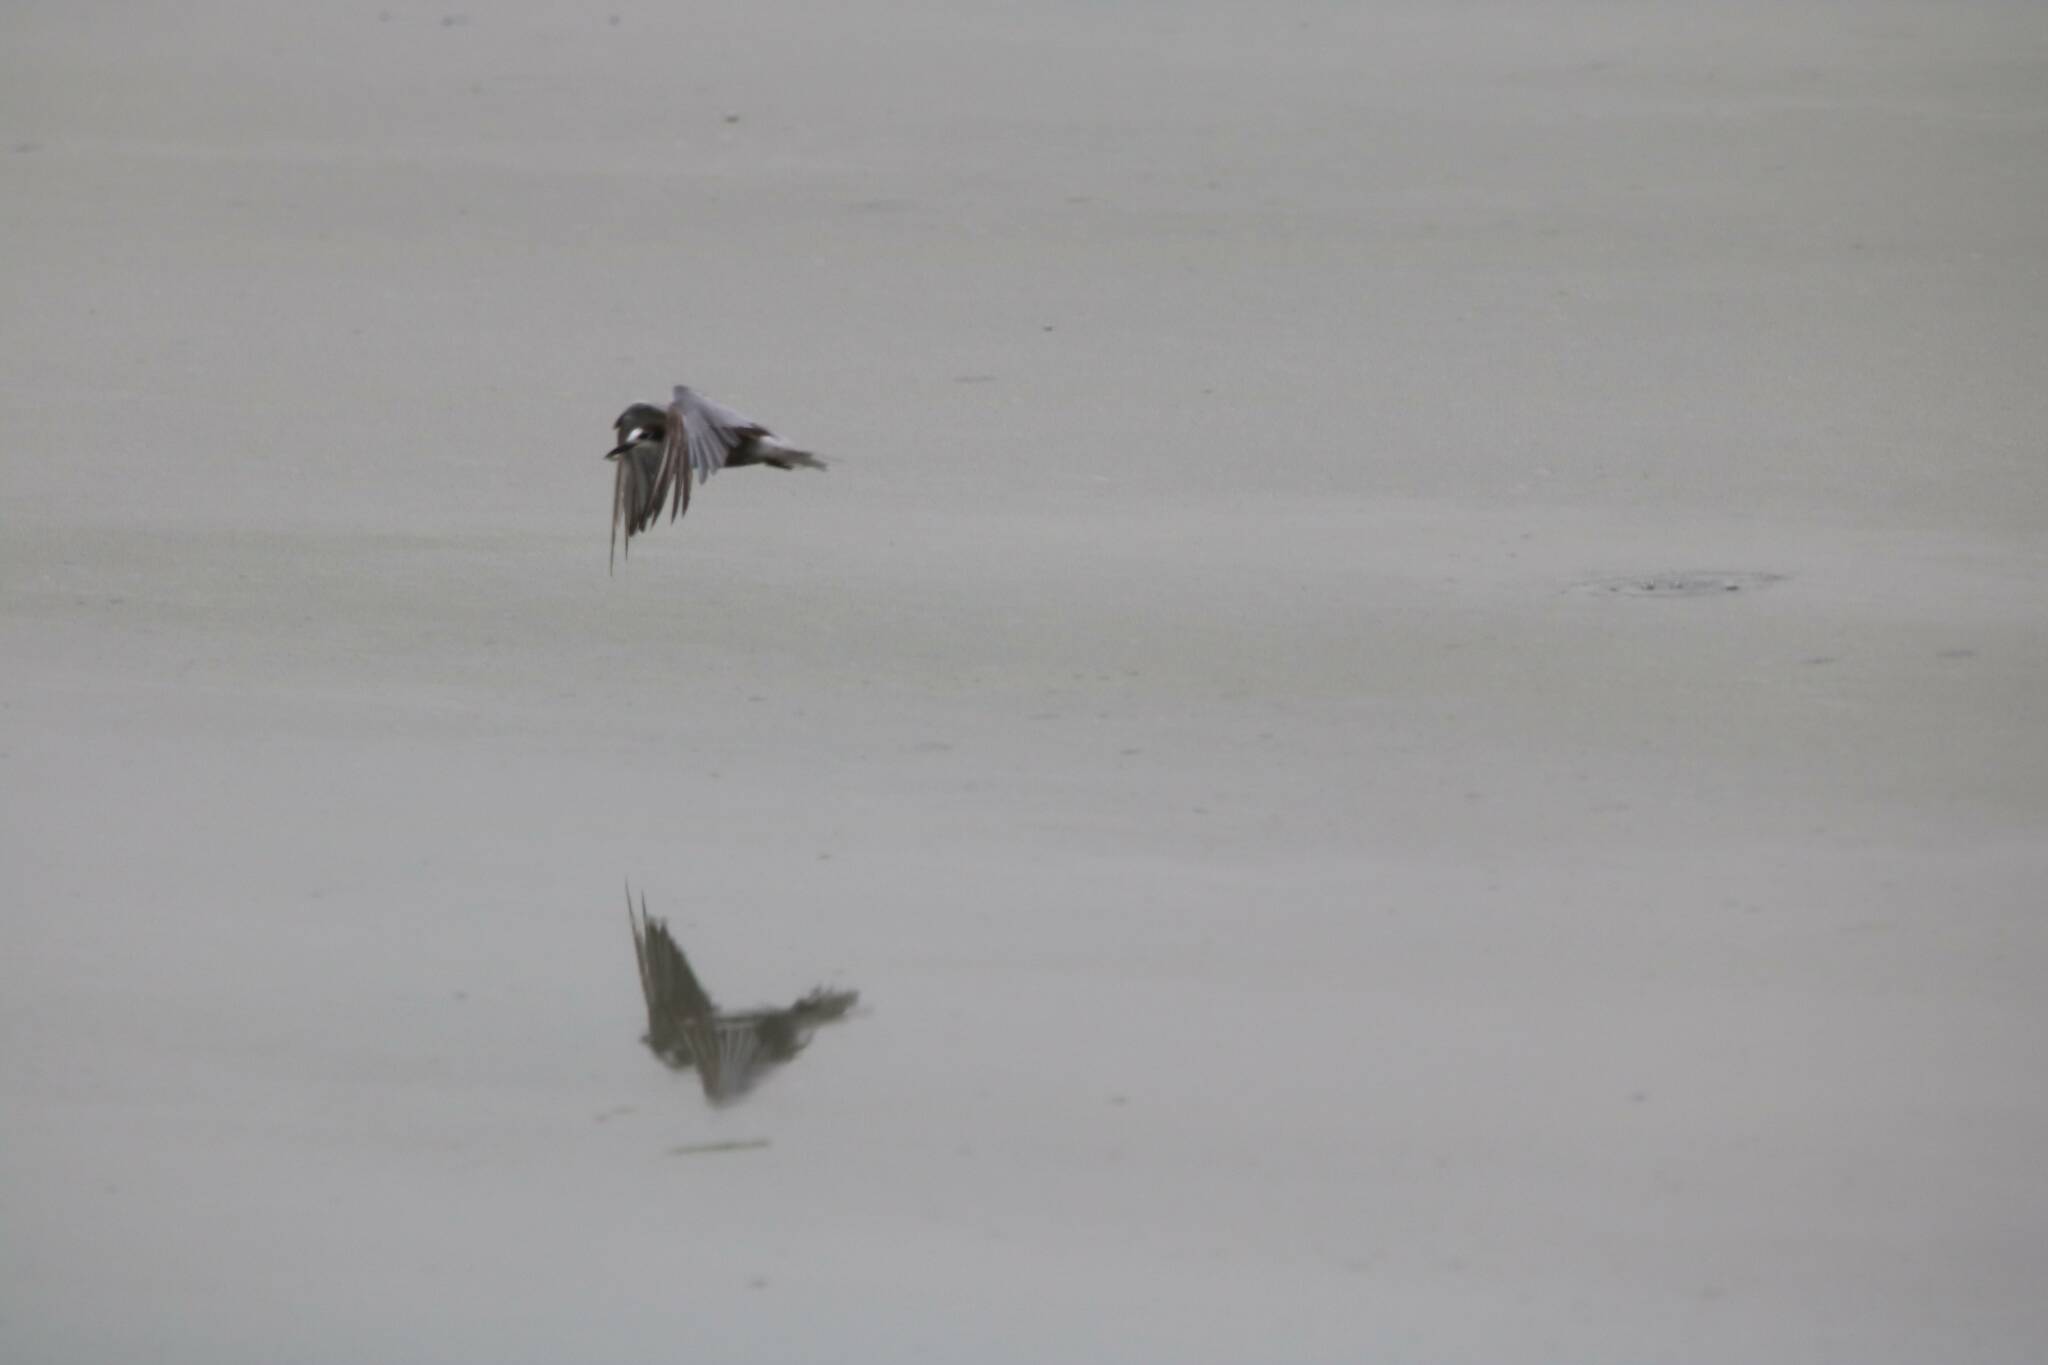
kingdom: Animalia
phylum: Chordata
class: Aves
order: Charadriiformes
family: Laridae
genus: Chlidonias
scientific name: Chlidonias niger
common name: Black tern
